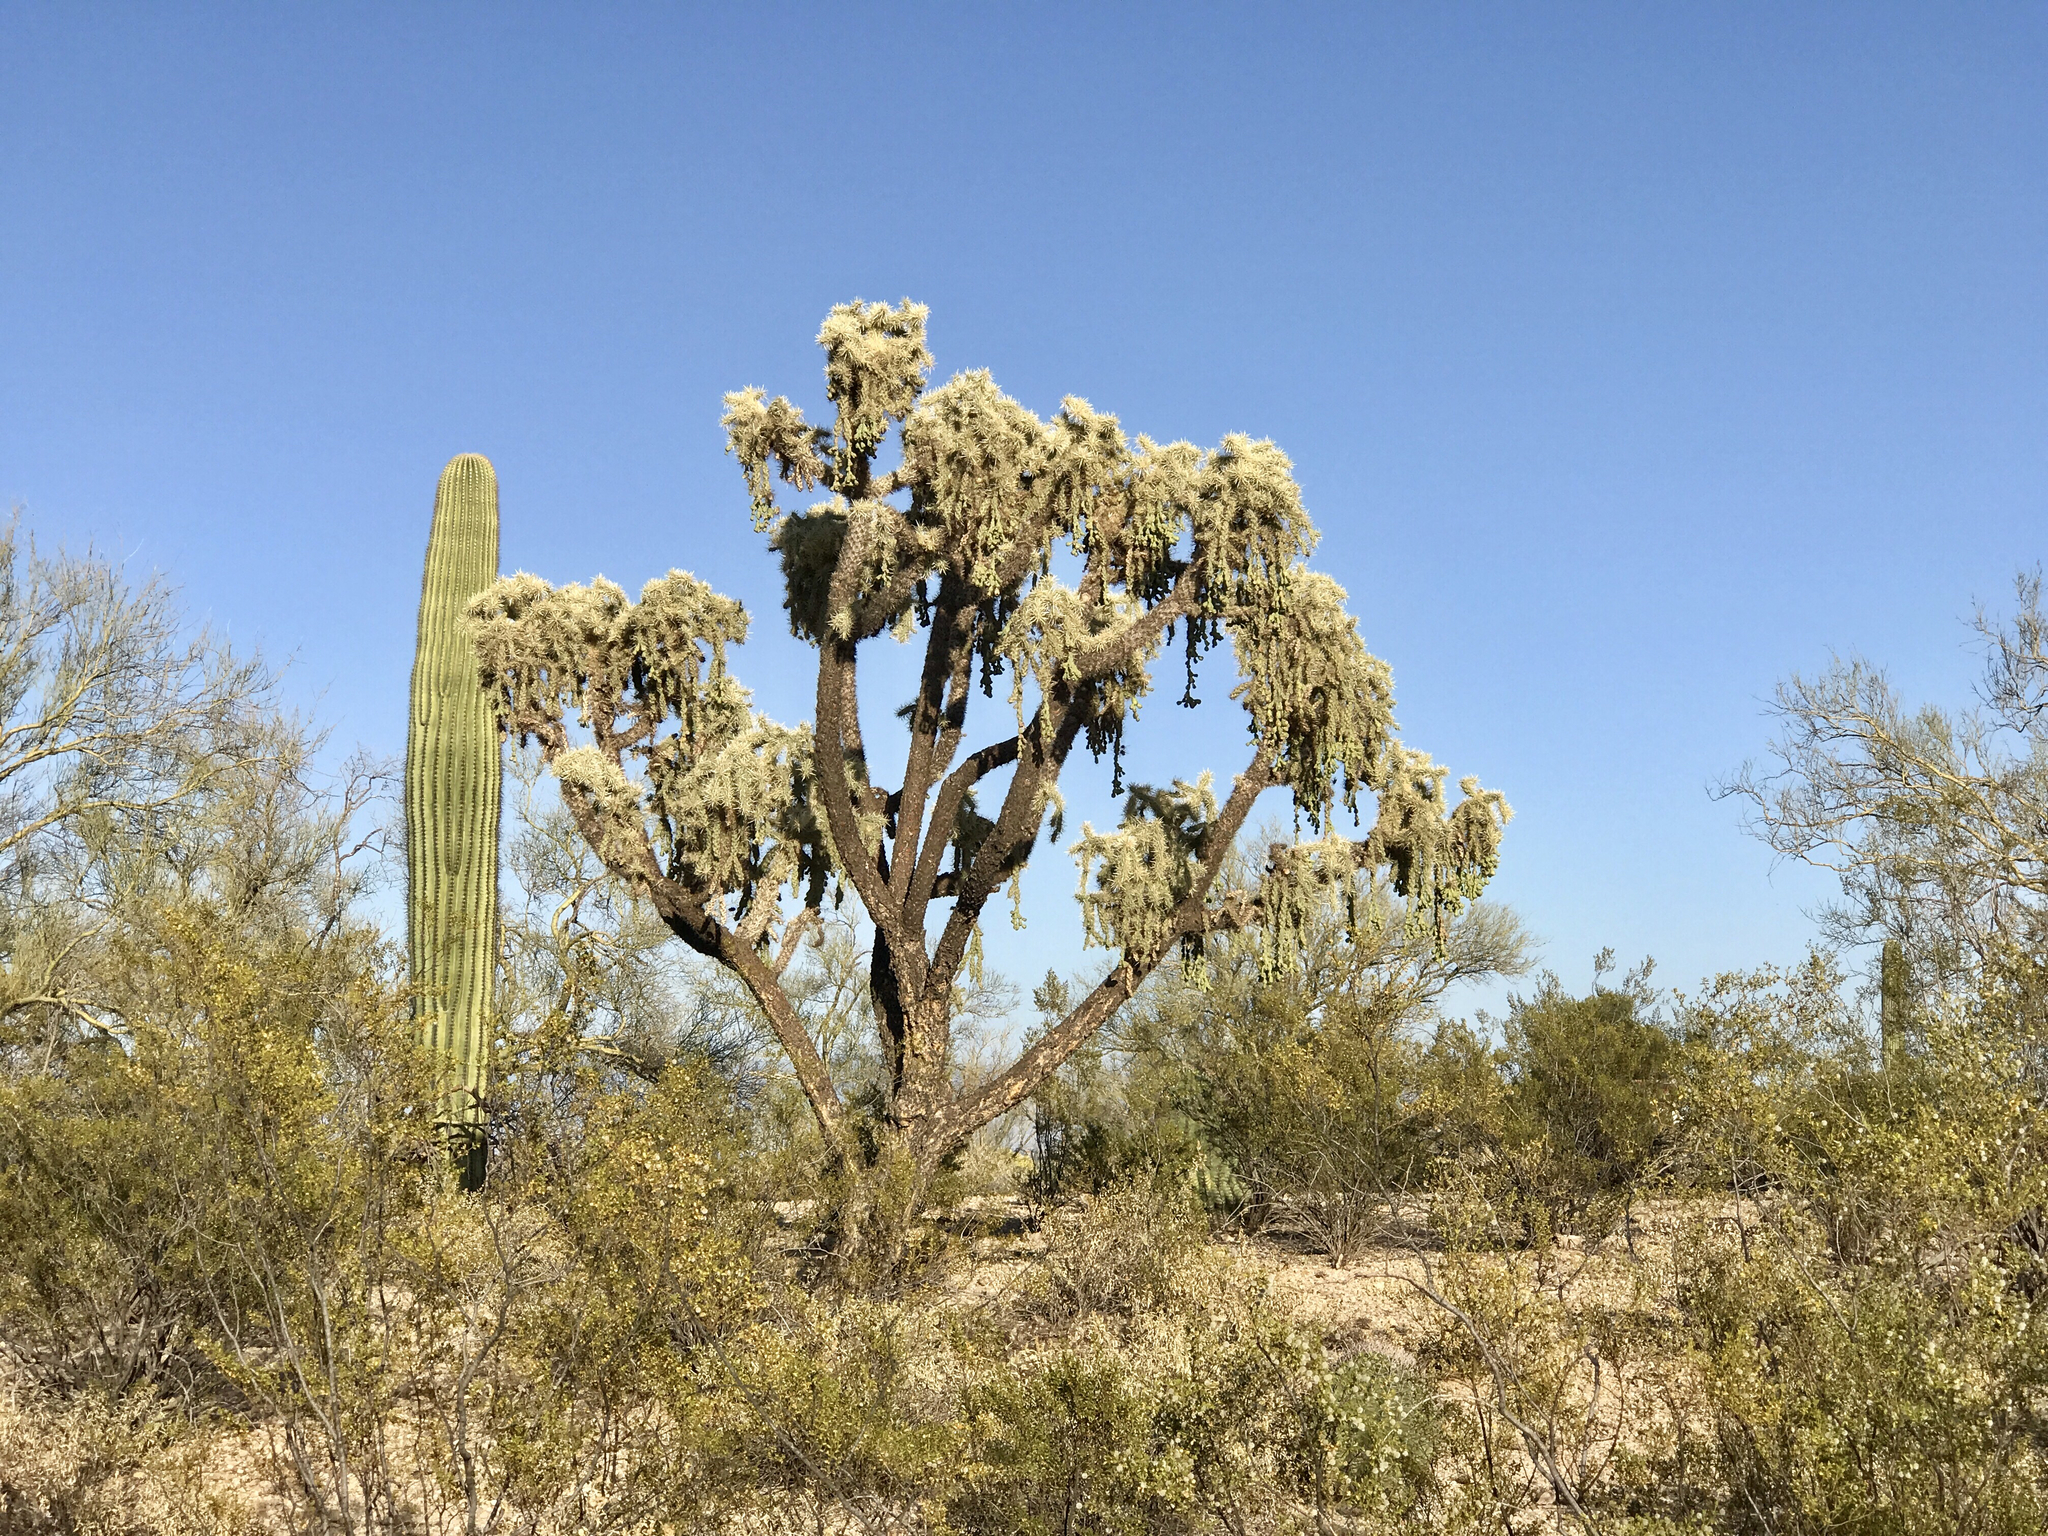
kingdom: Plantae
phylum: Tracheophyta
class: Magnoliopsida
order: Caryophyllales
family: Cactaceae
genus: Cylindropuntia
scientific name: Cylindropuntia fulgida
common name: Jumping cholla
